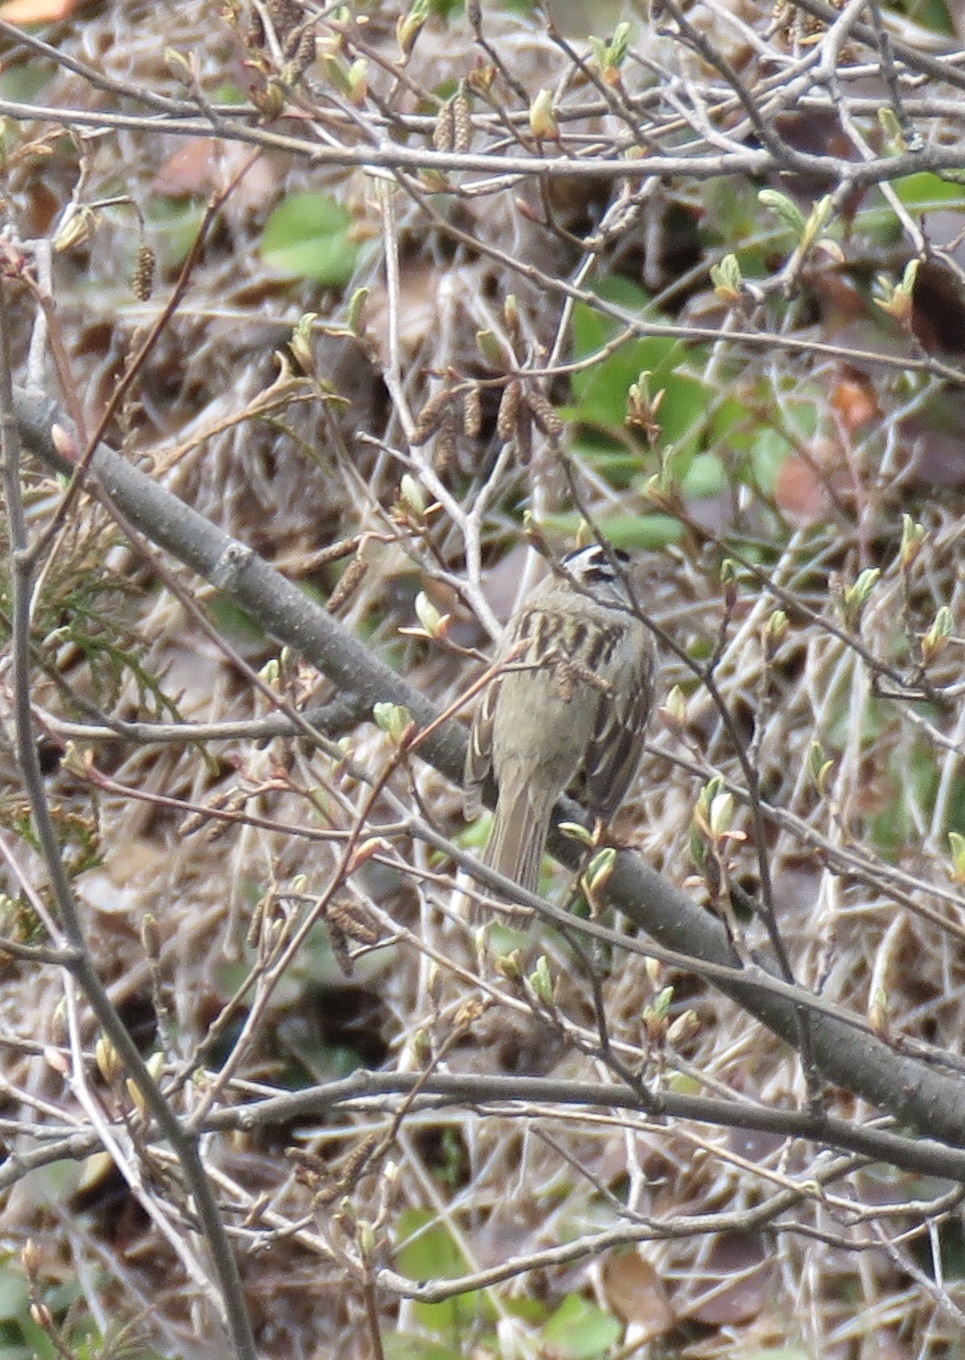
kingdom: Animalia
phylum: Chordata
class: Aves
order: Passeriformes
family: Passerellidae
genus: Zonotrichia
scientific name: Zonotrichia leucophrys
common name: White-crowned sparrow
